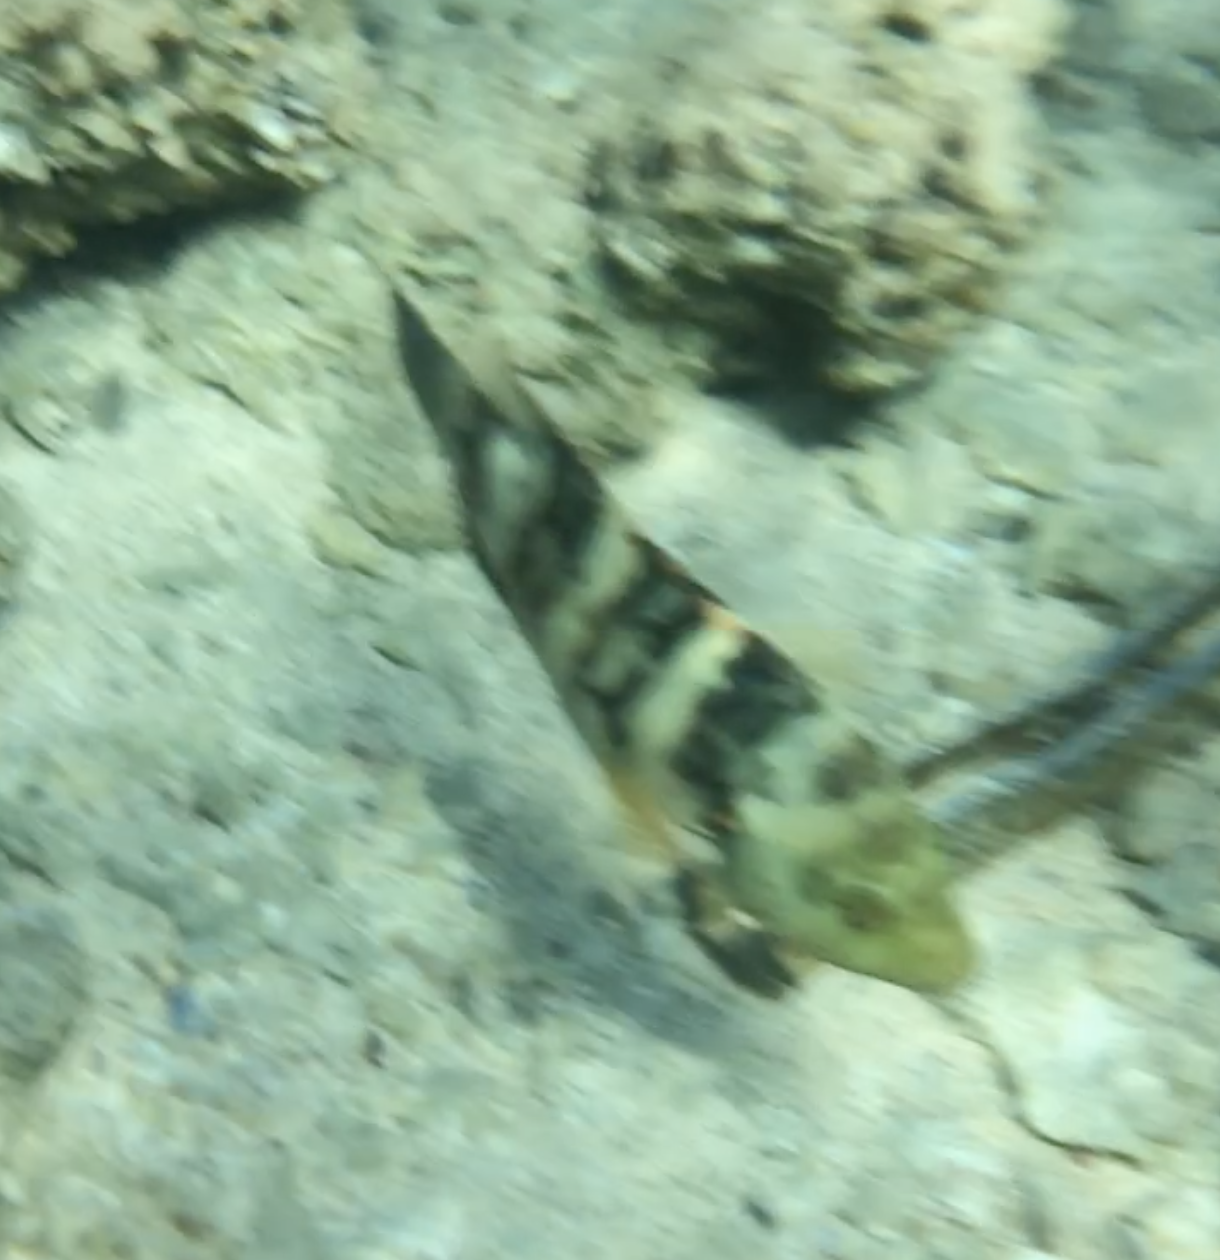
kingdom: Animalia
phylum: Chordata
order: Perciformes
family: Labridae
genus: Cheilinus
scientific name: Cheilinus lunulatus
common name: Broomtail wrasse
